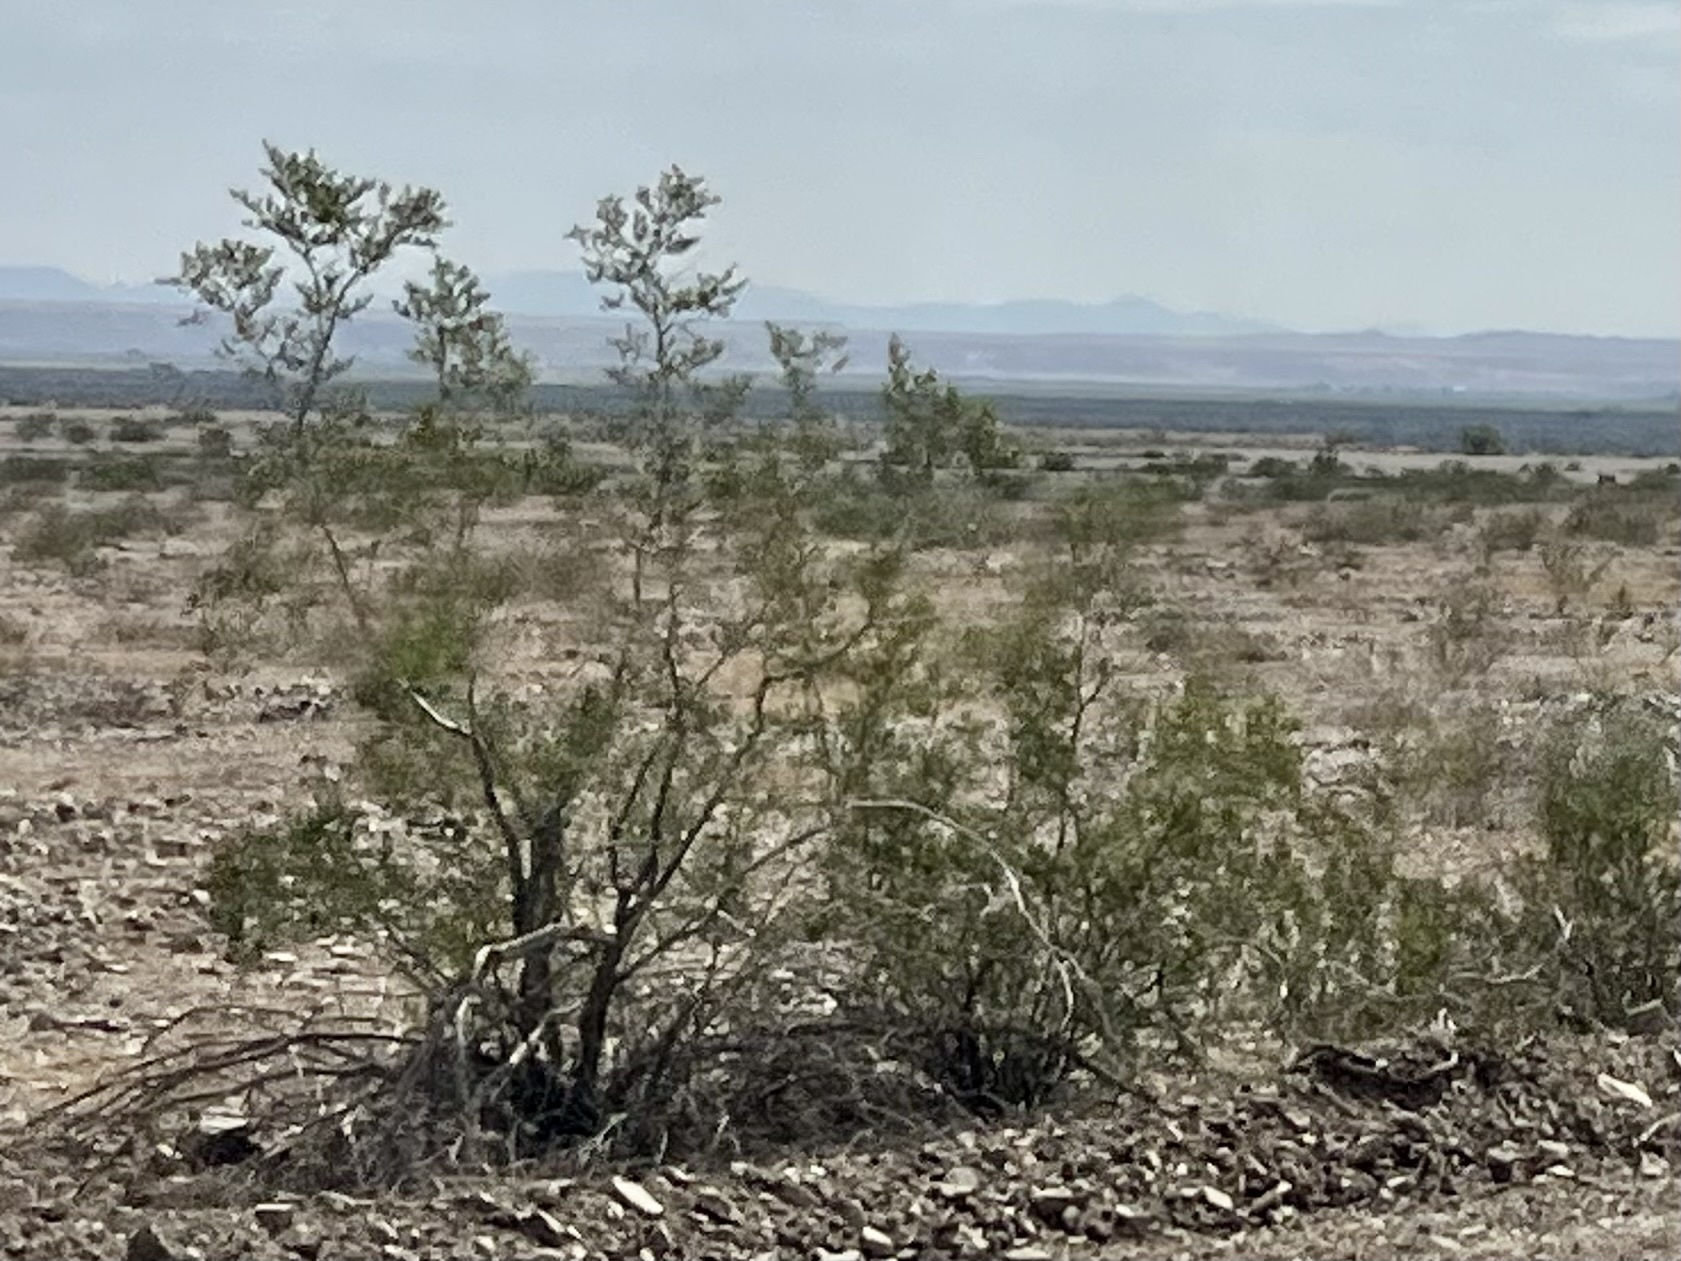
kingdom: Plantae
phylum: Tracheophyta
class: Magnoliopsida
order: Zygophyllales
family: Zygophyllaceae
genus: Larrea
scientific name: Larrea tridentata
